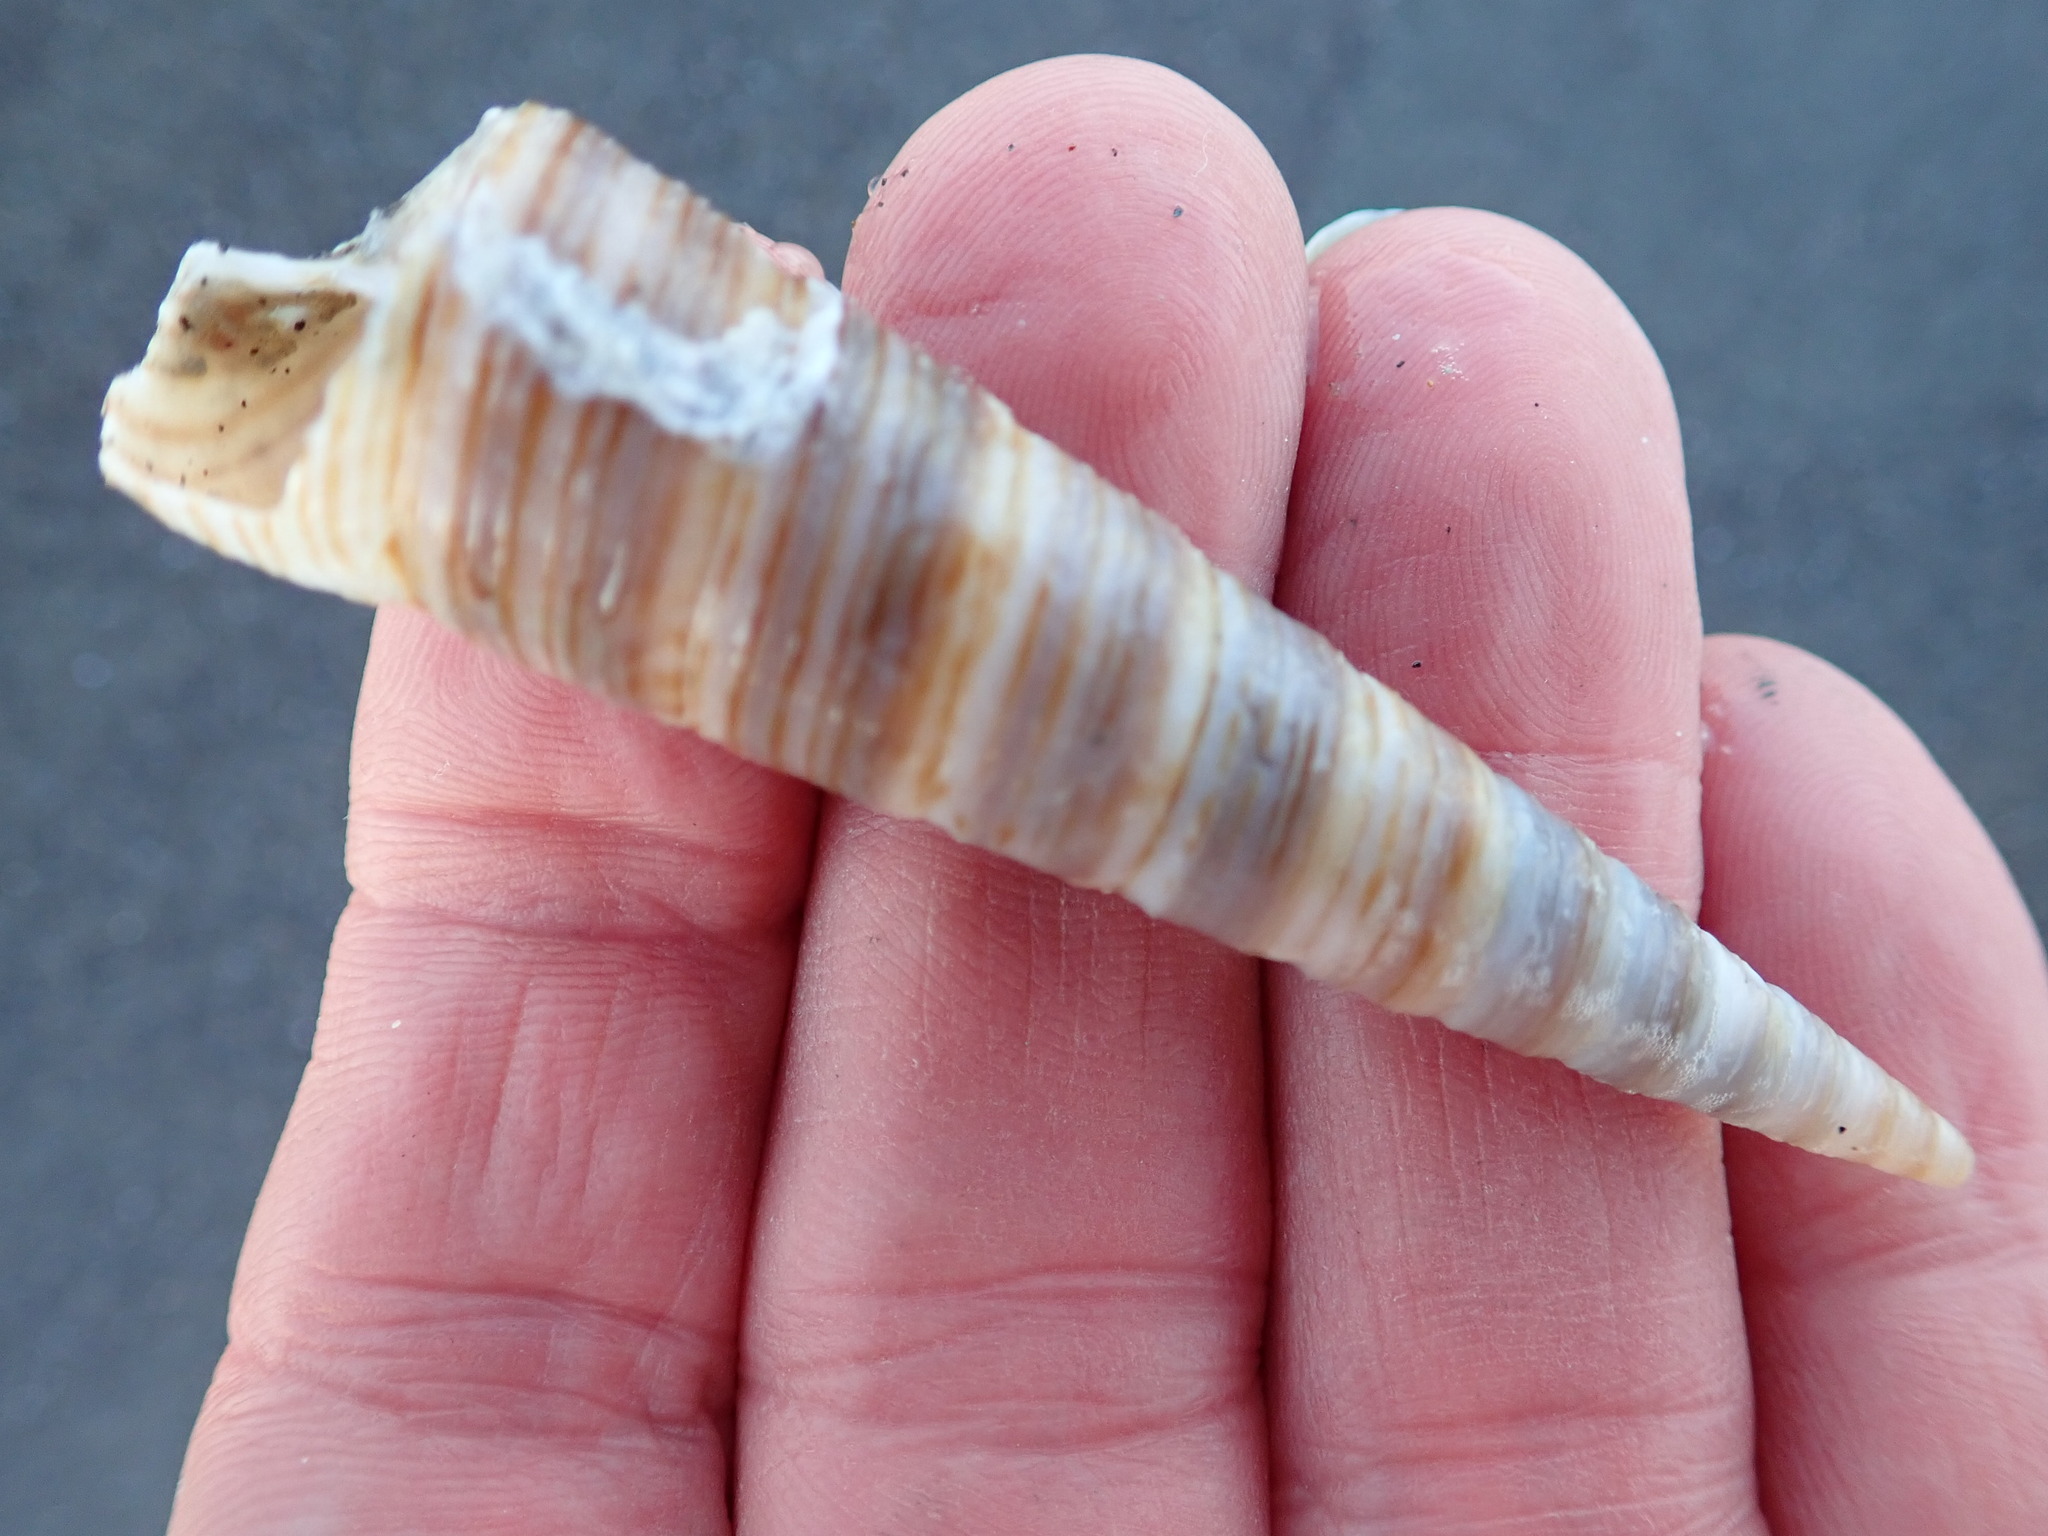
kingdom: Animalia
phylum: Mollusca
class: Gastropoda
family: Turritellidae
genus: Zeacolpus
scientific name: Zeacolpus vittatus
